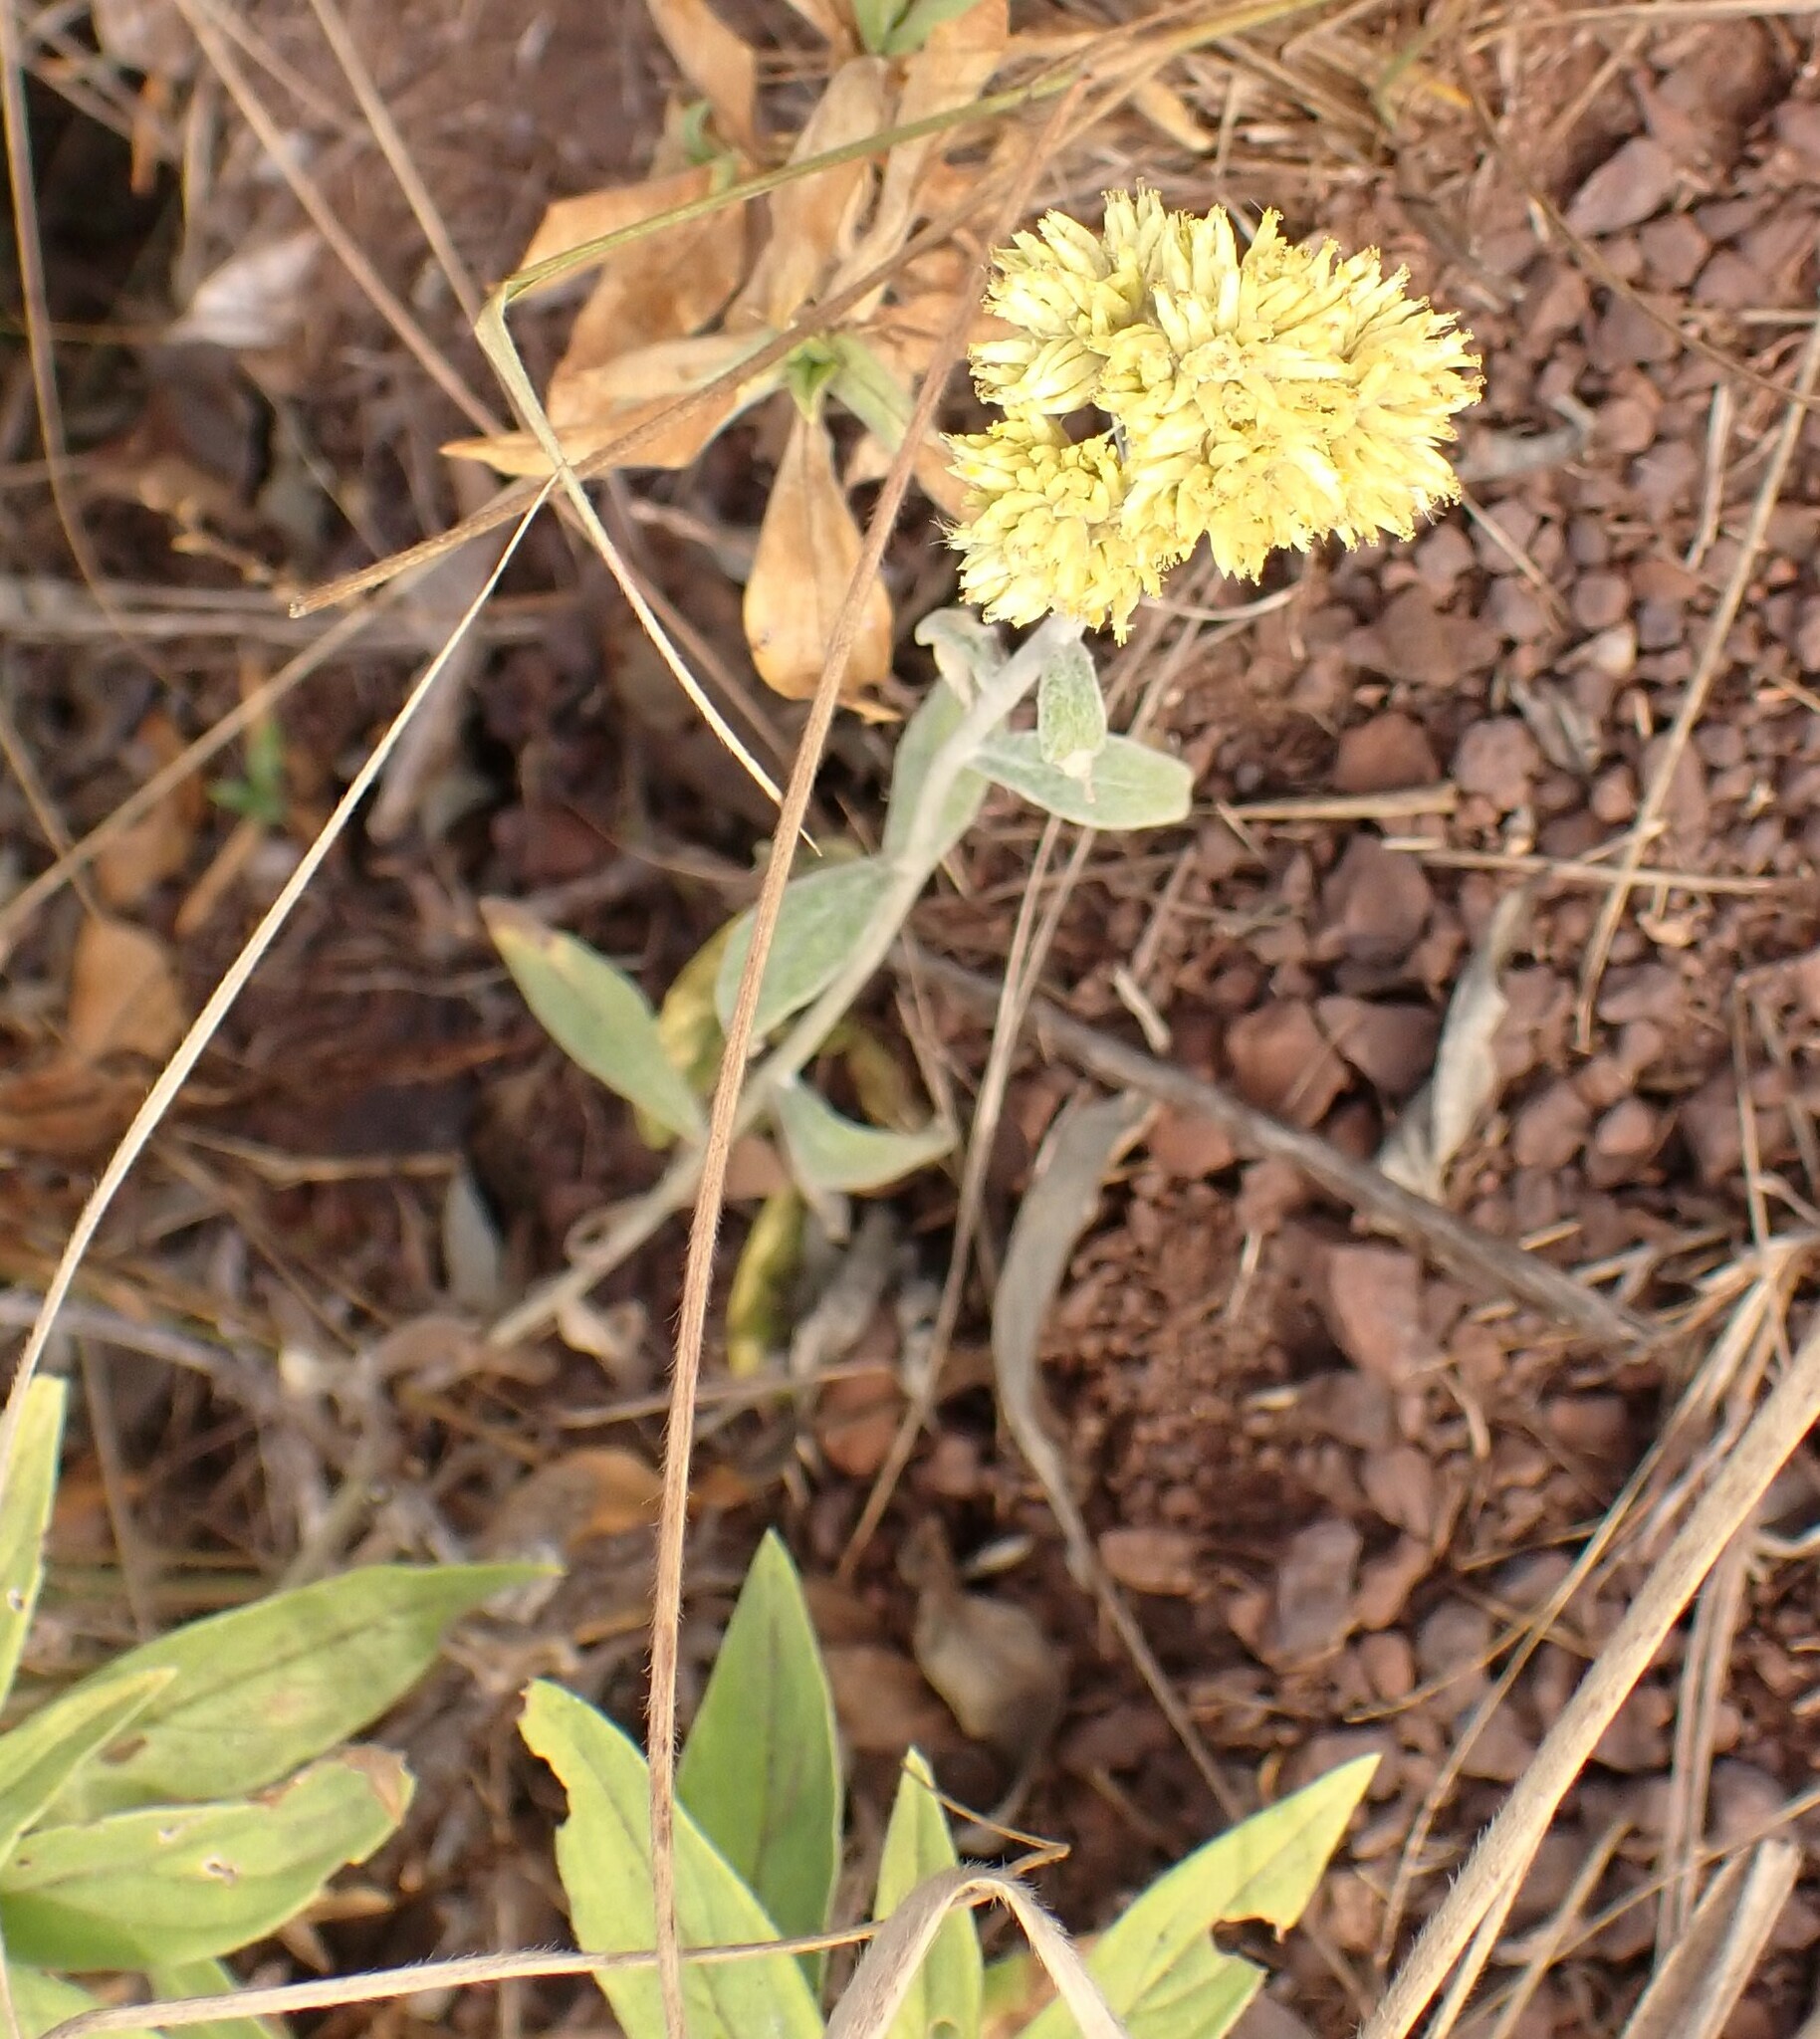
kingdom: Plantae
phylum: Tracheophyta
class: Magnoliopsida
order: Asterales
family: Asteraceae
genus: Achyrocline
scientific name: Achyrocline satureioides
